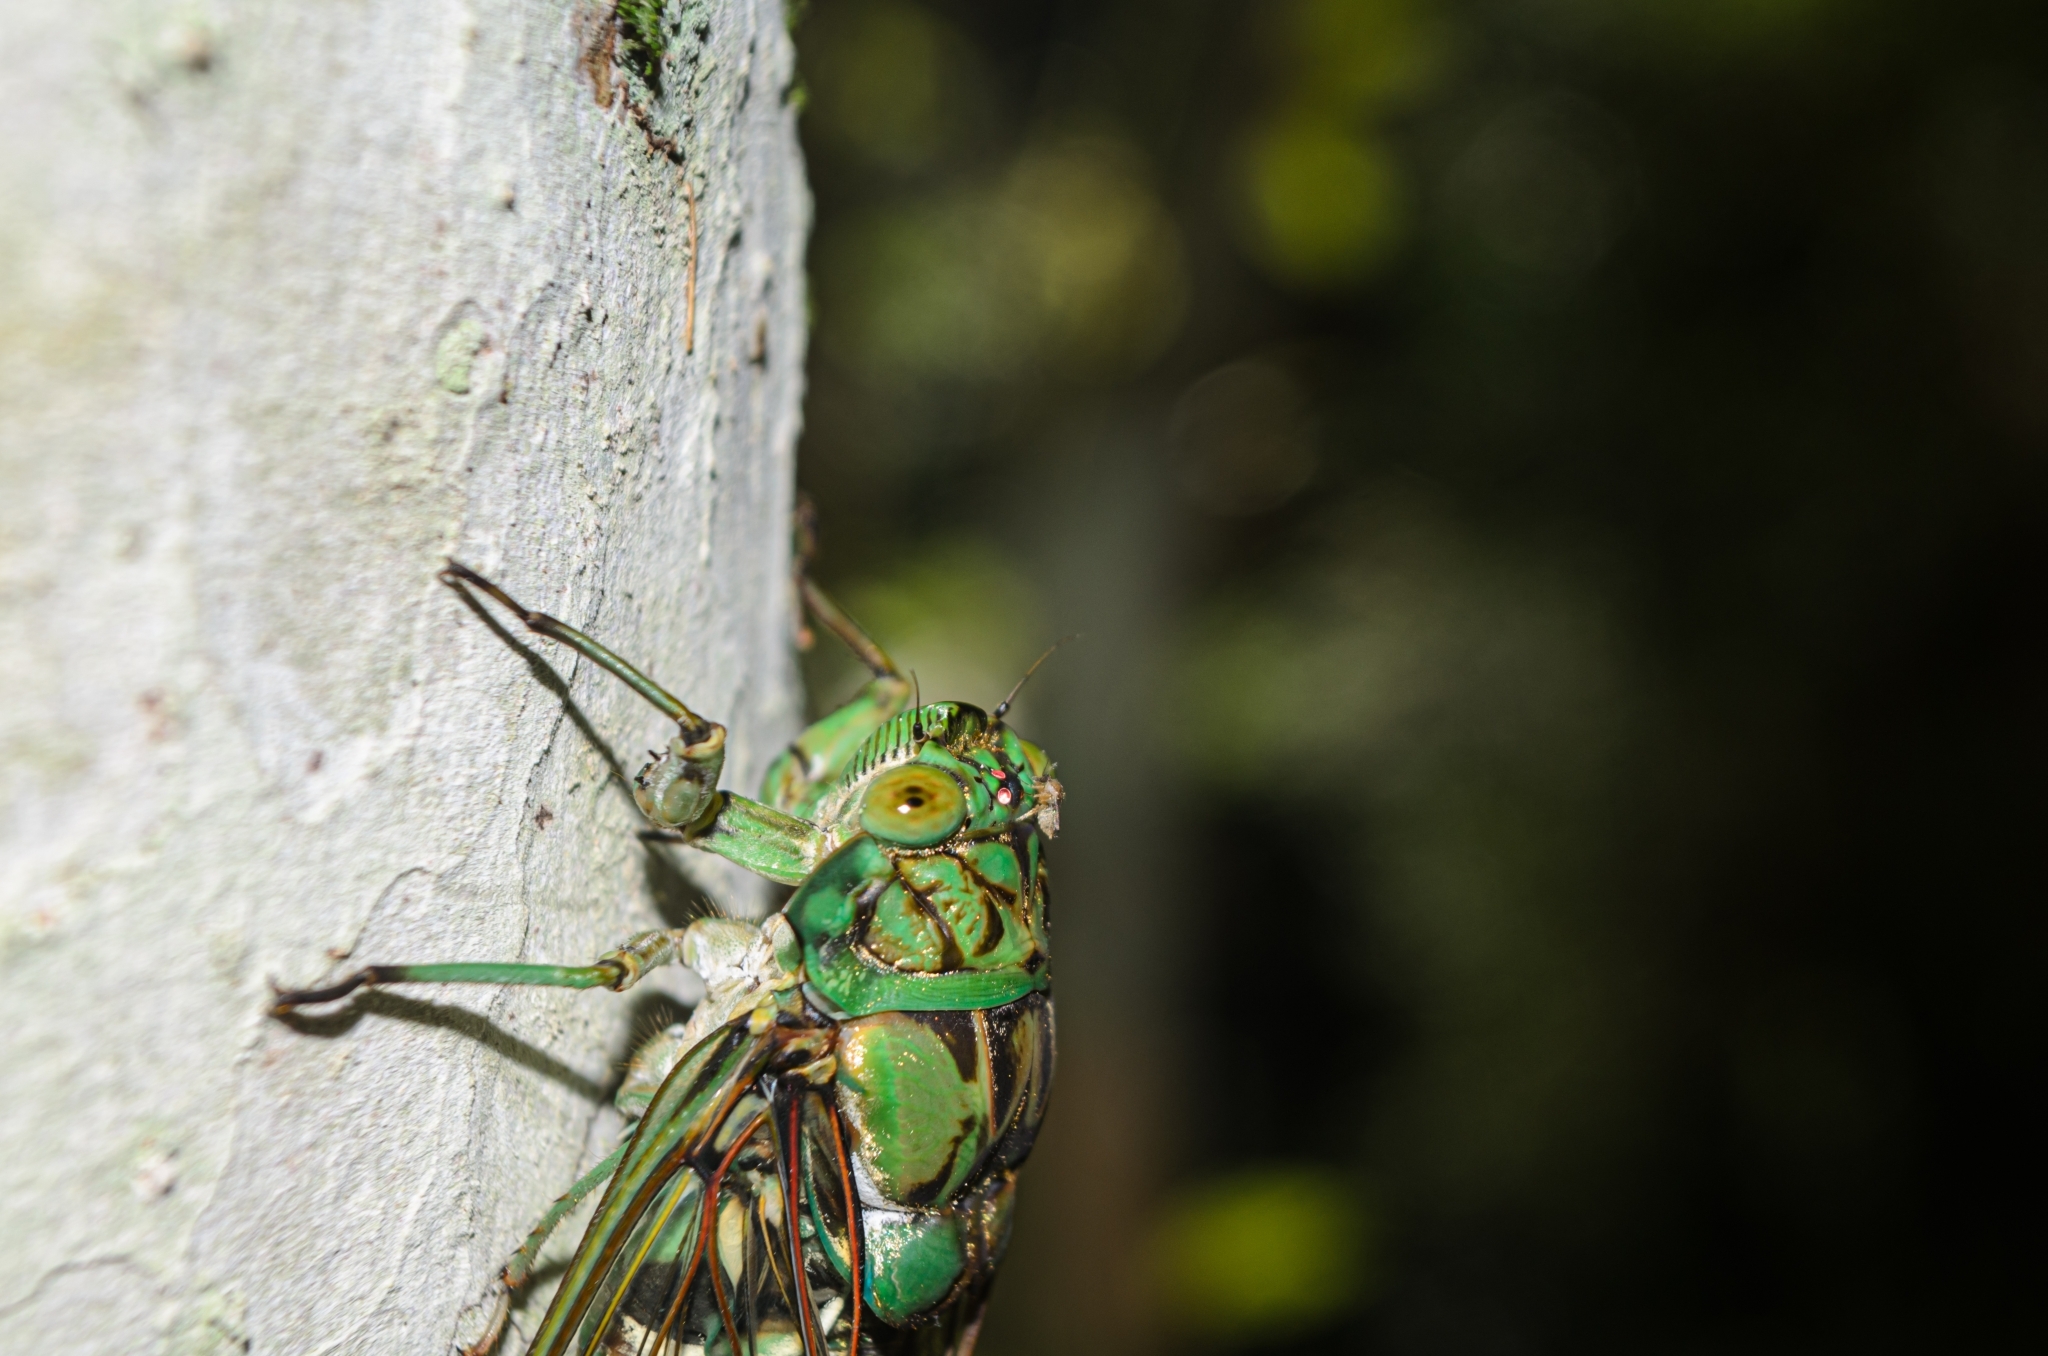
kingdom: Animalia
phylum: Arthropoda
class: Insecta
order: Hemiptera
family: Cicadidae
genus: Zammara
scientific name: Zammara tympanum
